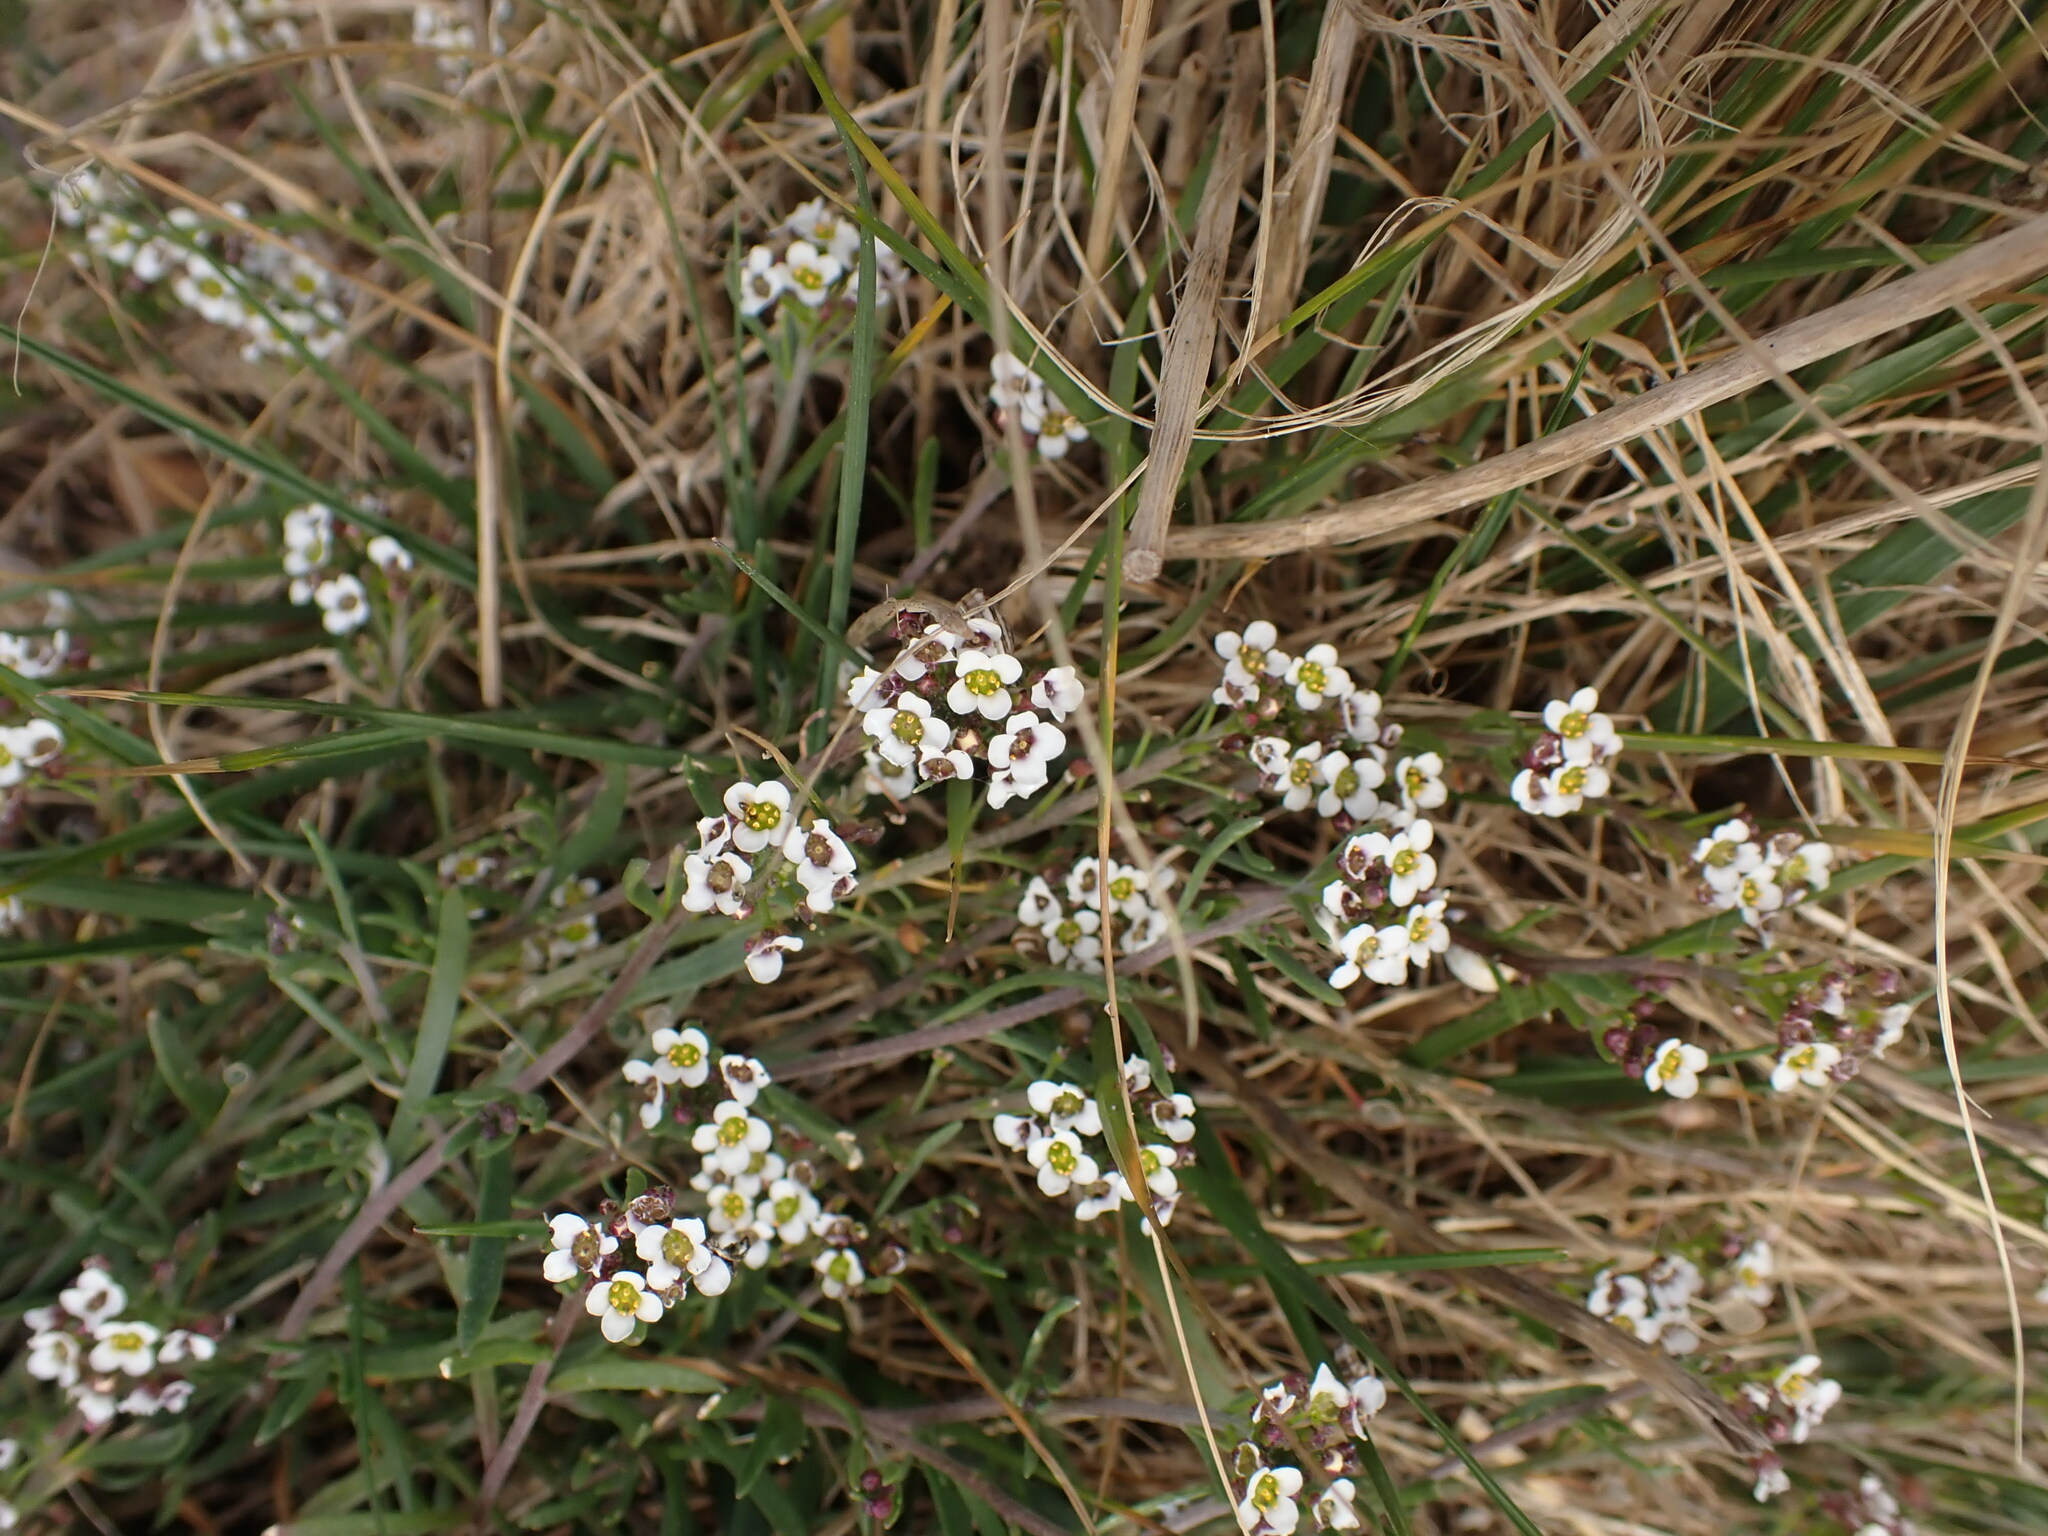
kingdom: Plantae
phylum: Tracheophyta
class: Magnoliopsida
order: Brassicales
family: Brassicaceae
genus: Lobularia
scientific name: Lobularia maritima
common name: Sweet alison
